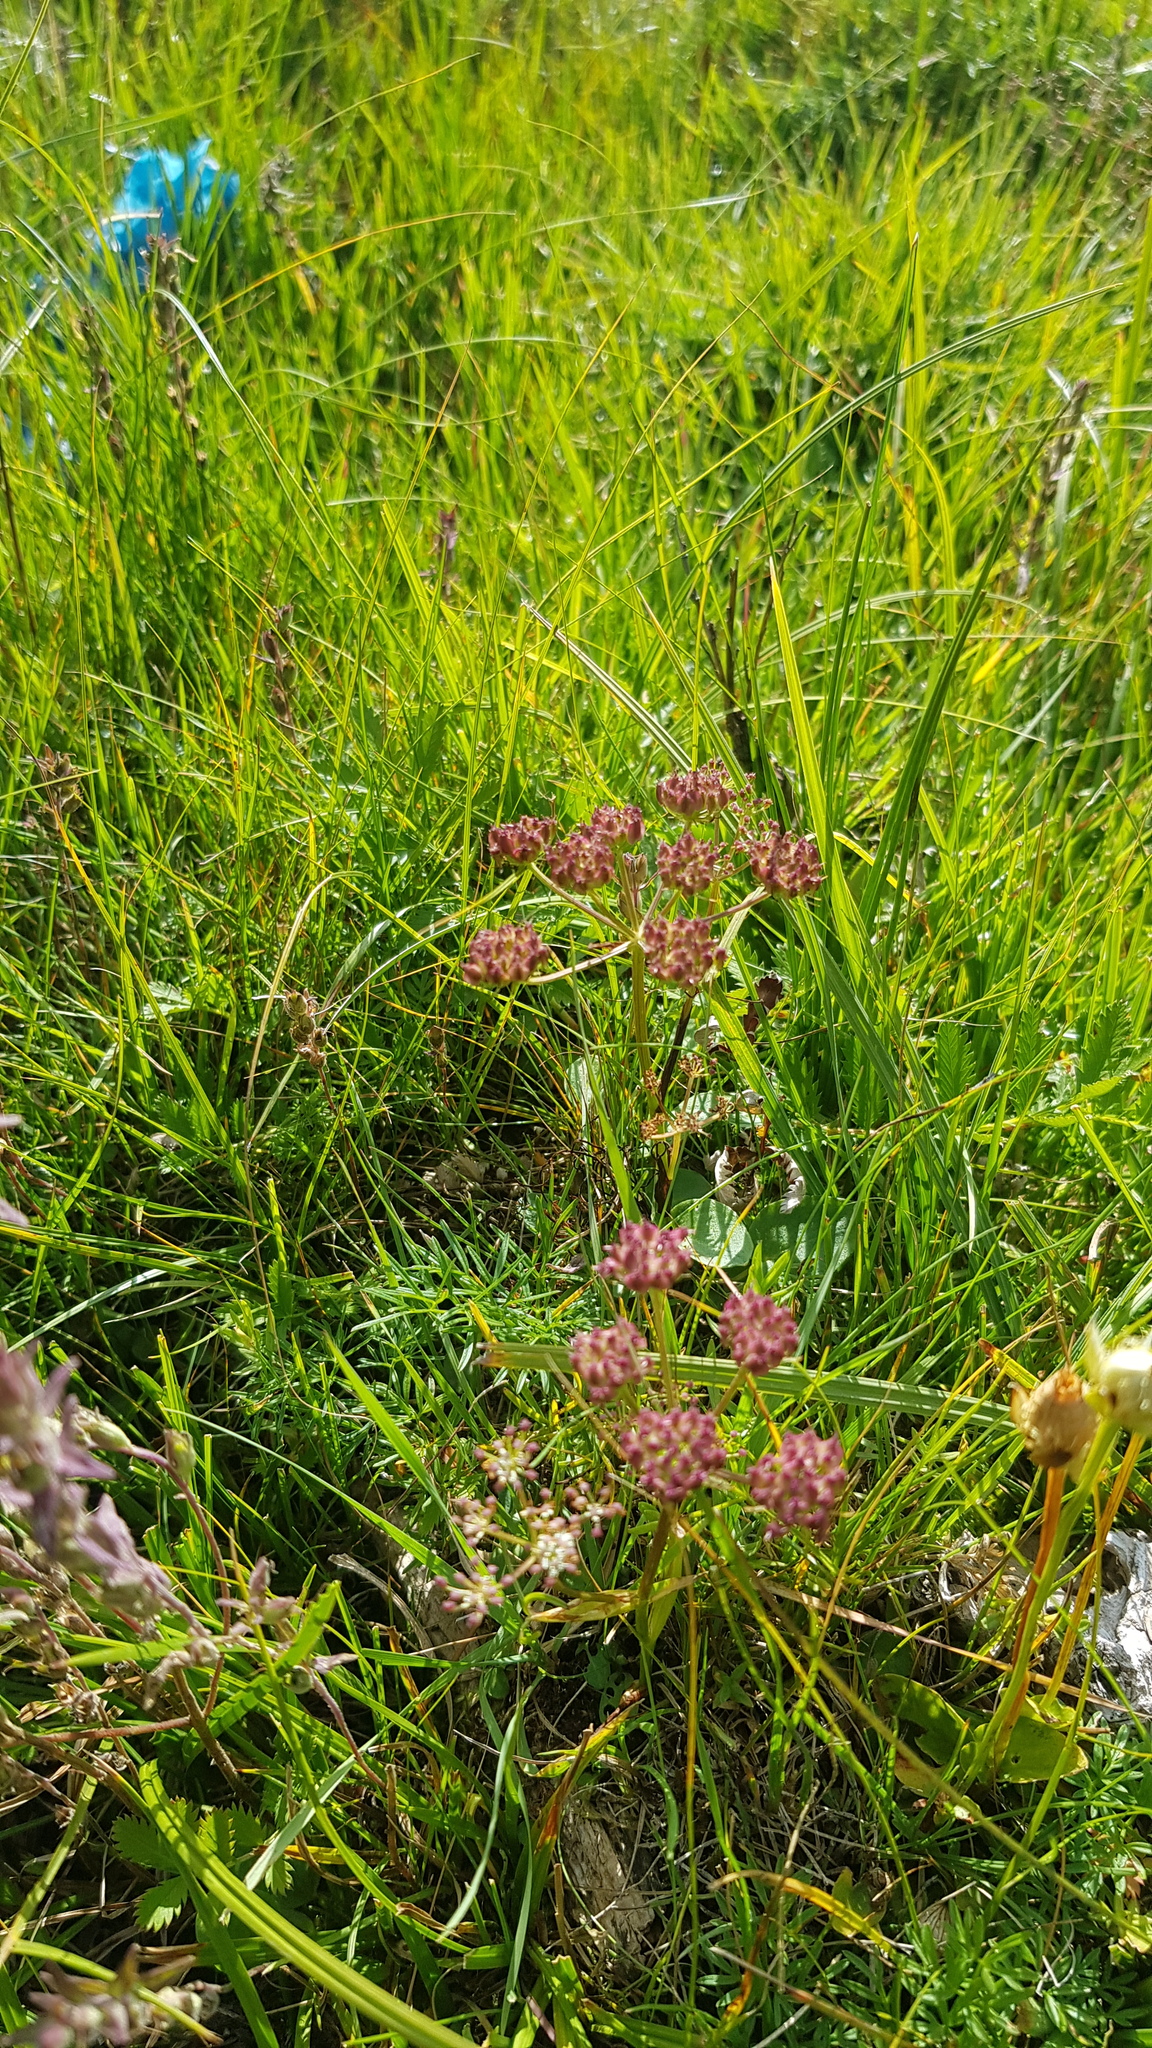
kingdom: Plantae
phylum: Tracheophyta
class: Magnoliopsida
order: Apiales
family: Apiaceae
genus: Ostericum
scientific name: Ostericum tenuifolium
